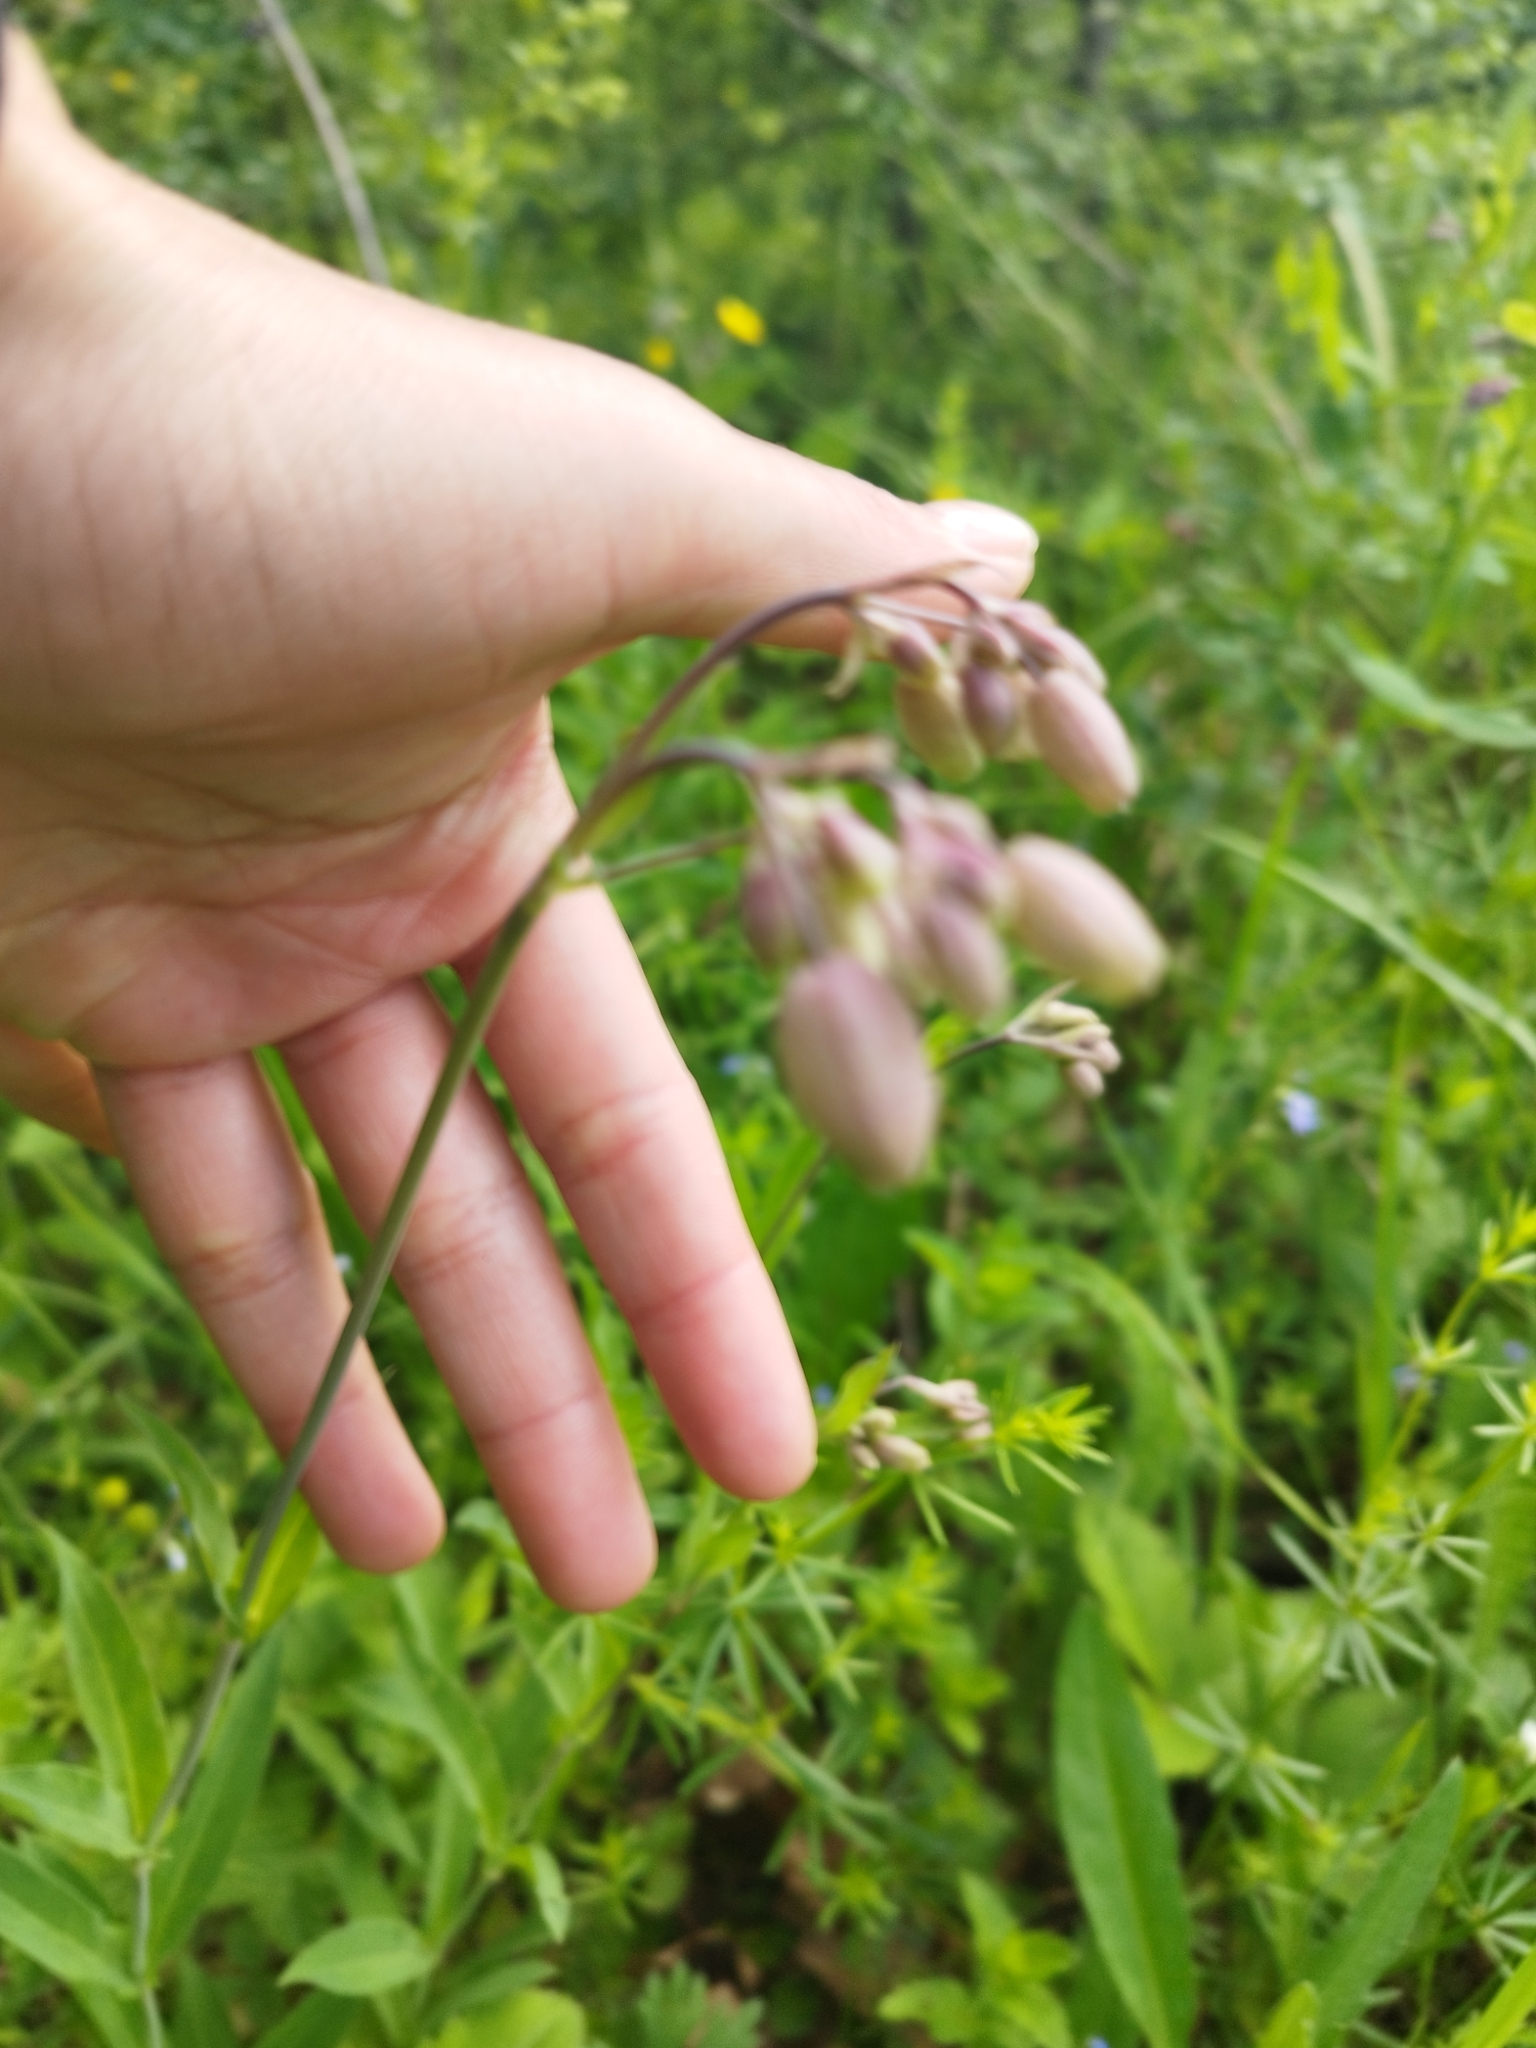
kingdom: Plantae
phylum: Tracheophyta
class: Magnoliopsida
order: Caryophyllales
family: Caryophyllaceae
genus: Silene
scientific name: Silene vulgaris
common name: Bladder campion
